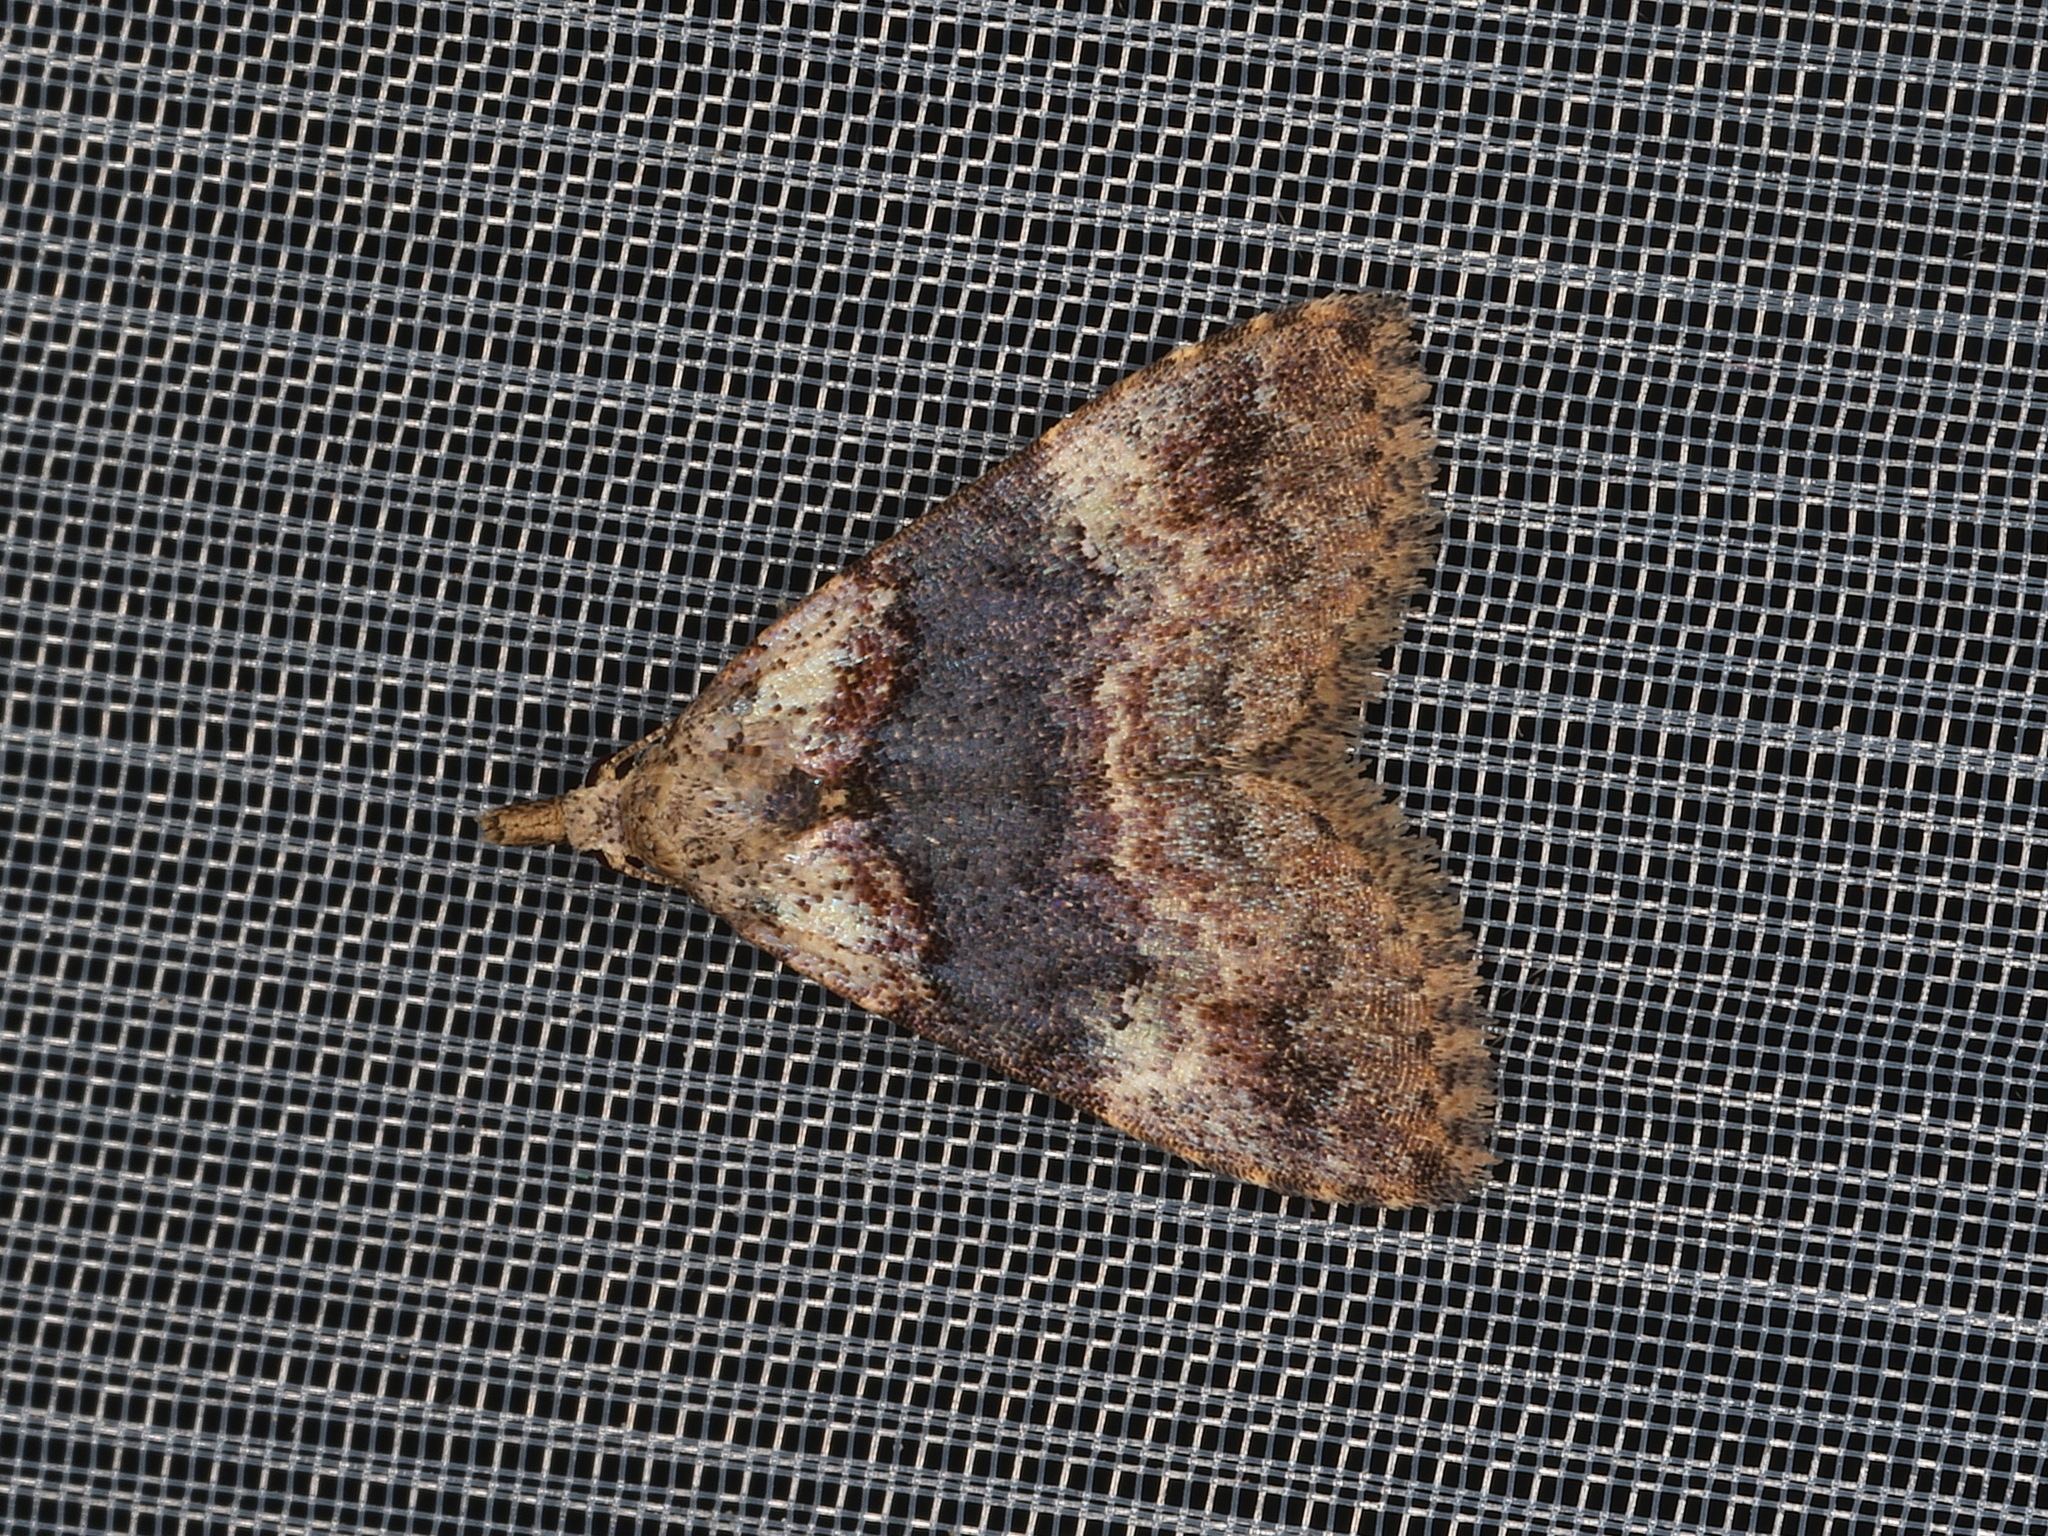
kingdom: Animalia
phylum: Arthropoda
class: Insecta
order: Lepidoptera
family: Erebidae
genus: Alapadna
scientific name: Alapadna pauropis
